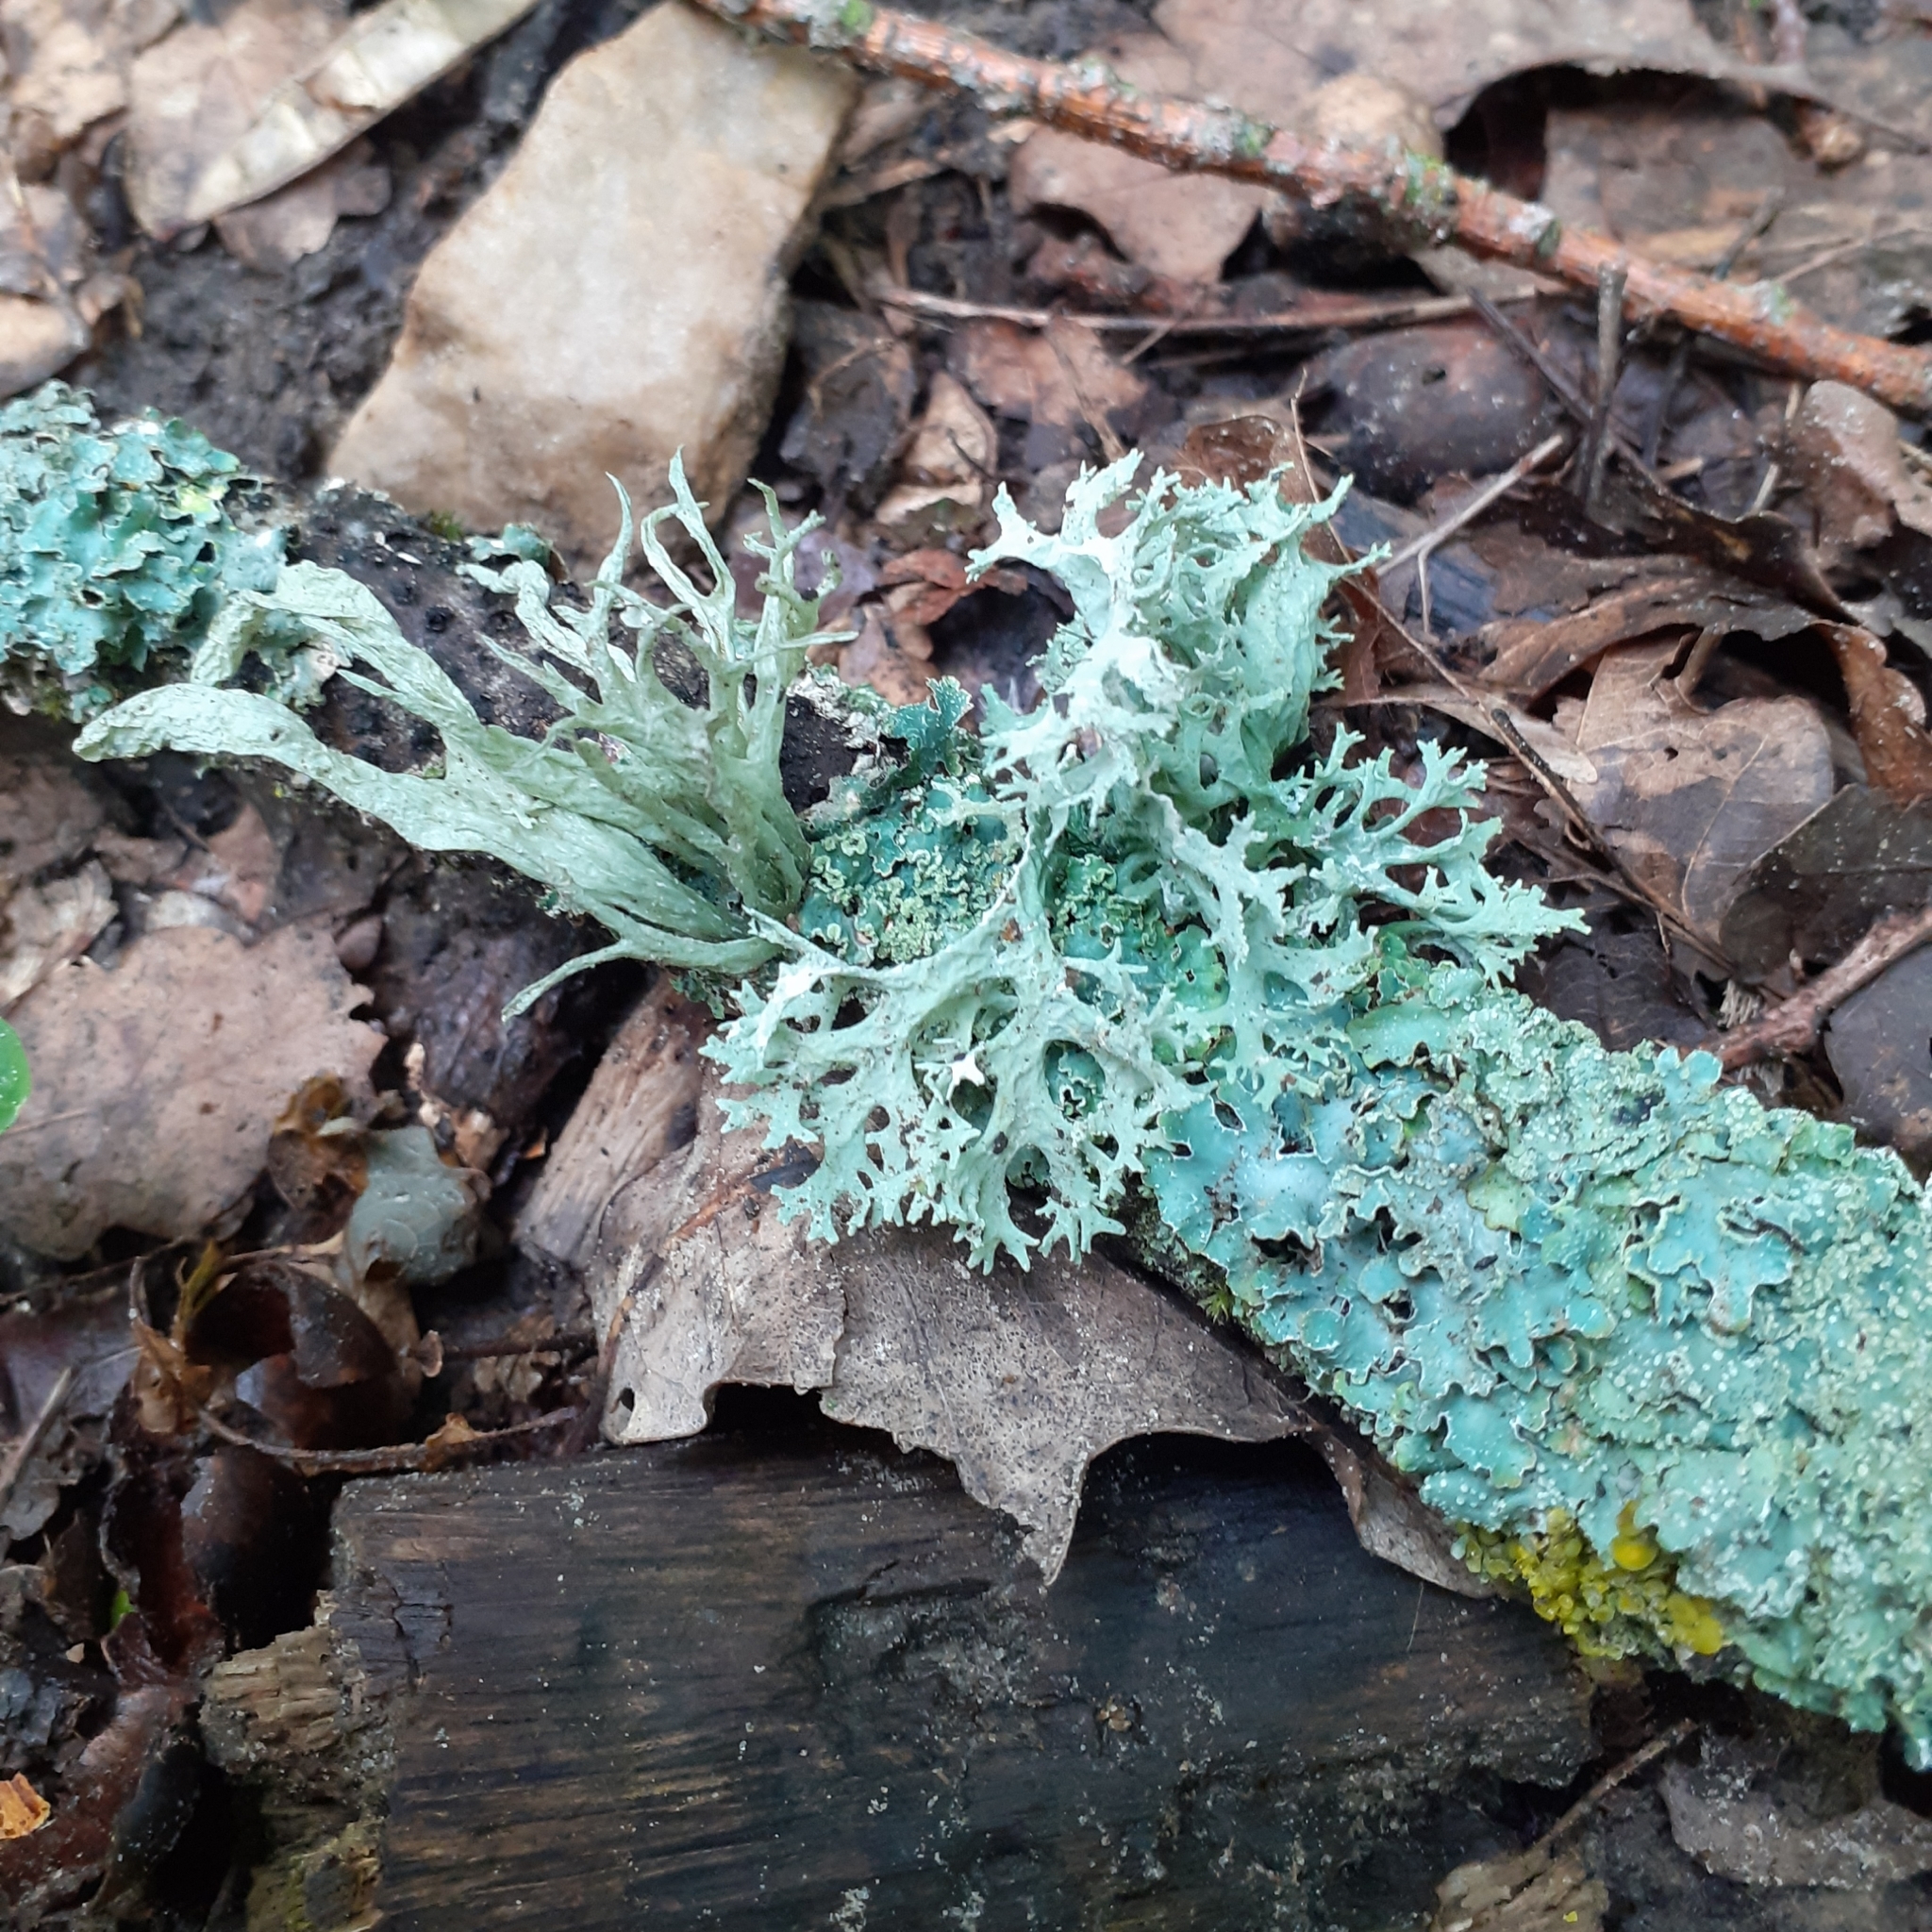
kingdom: Fungi
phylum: Ascomycota
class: Lecanoromycetes
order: Lecanorales
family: Parmeliaceae
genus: Evernia
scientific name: Evernia prunastri
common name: Oak moss
